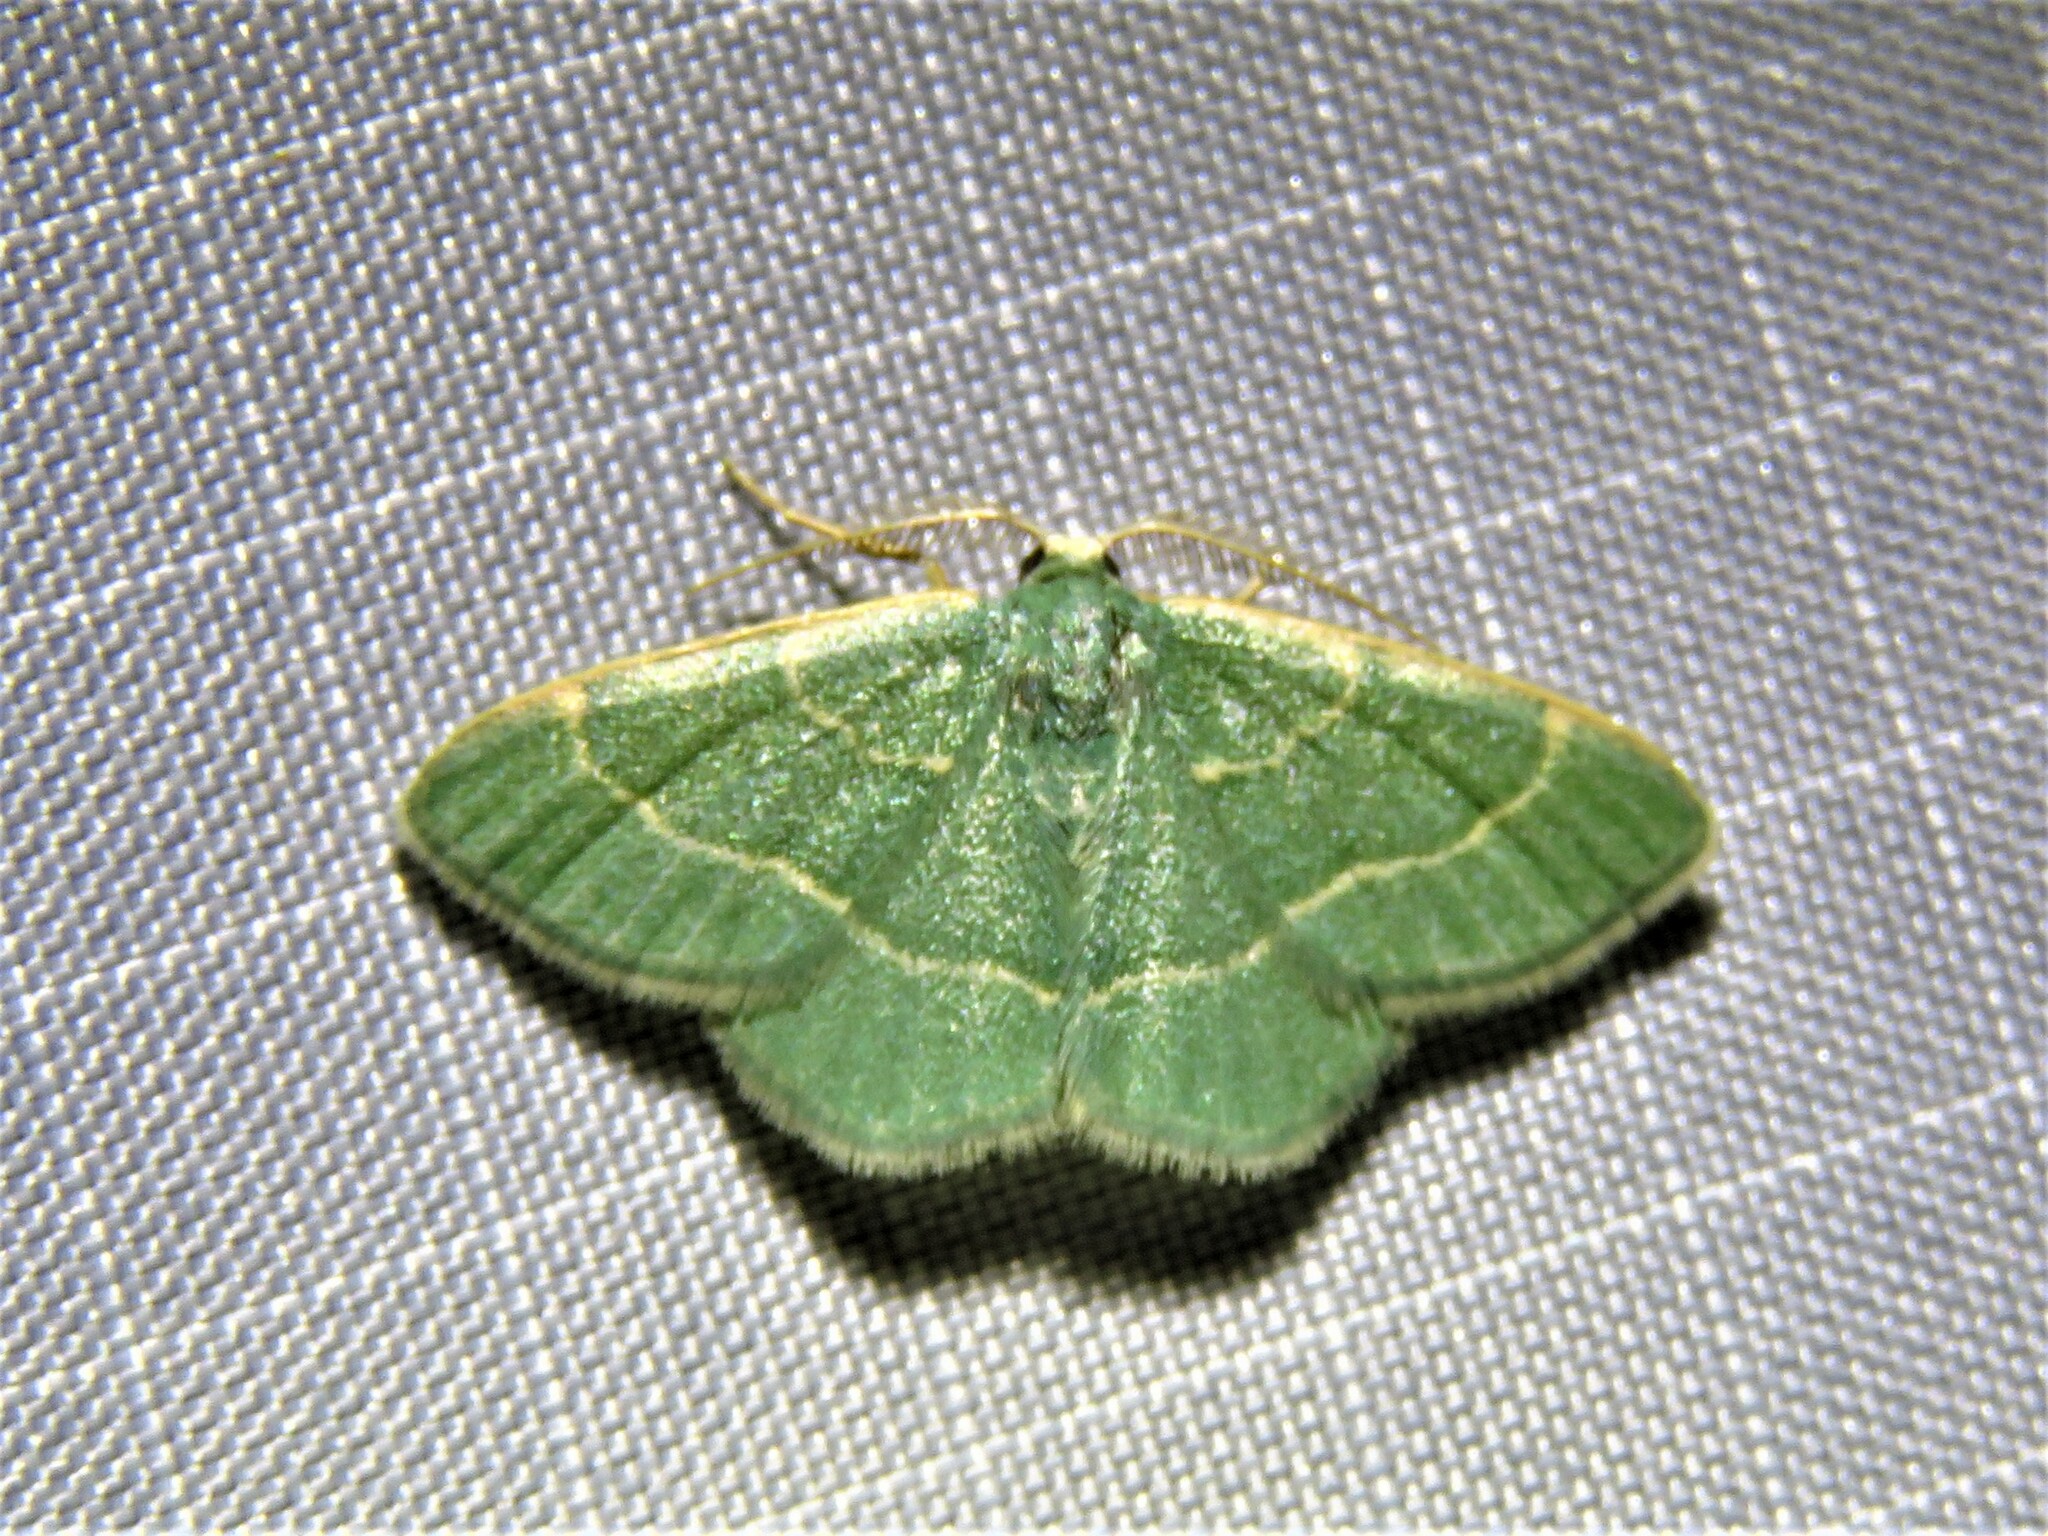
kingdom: Animalia
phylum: Arthropoda
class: Insecta
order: Lepidoptera
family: Geometridae
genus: Chlorochlamys
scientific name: Chlorochlamys appellaria
